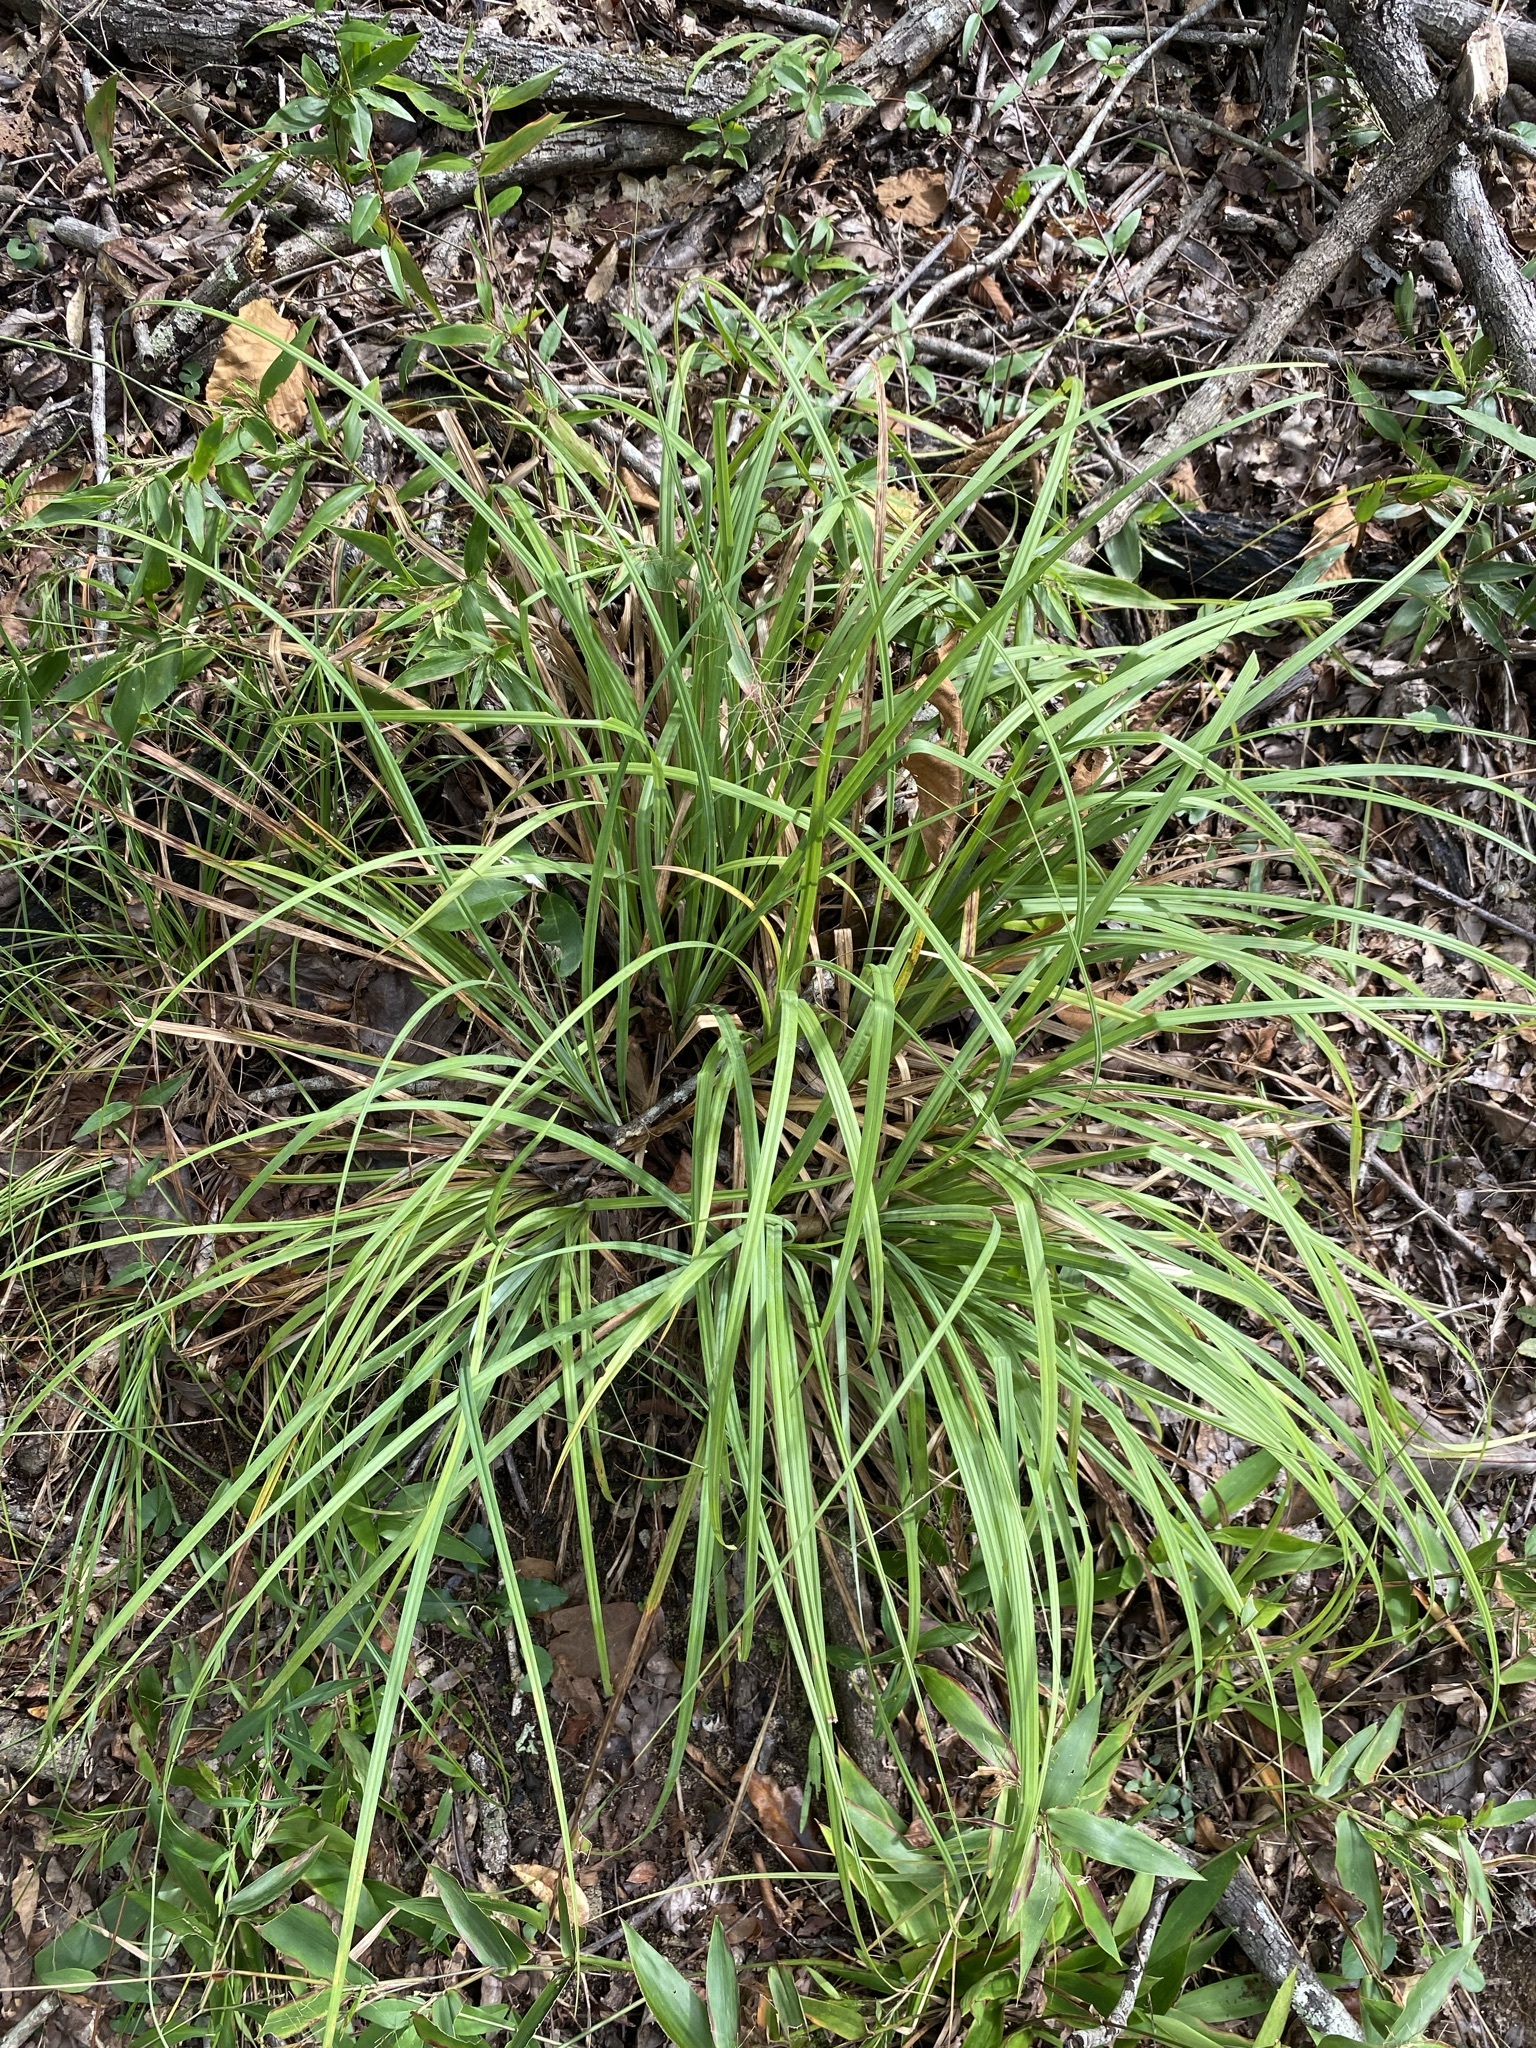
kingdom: Plantae
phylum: Tracheophyta
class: Liliopsida
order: Poales
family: Cyperaceae
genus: Carex
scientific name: Carex
